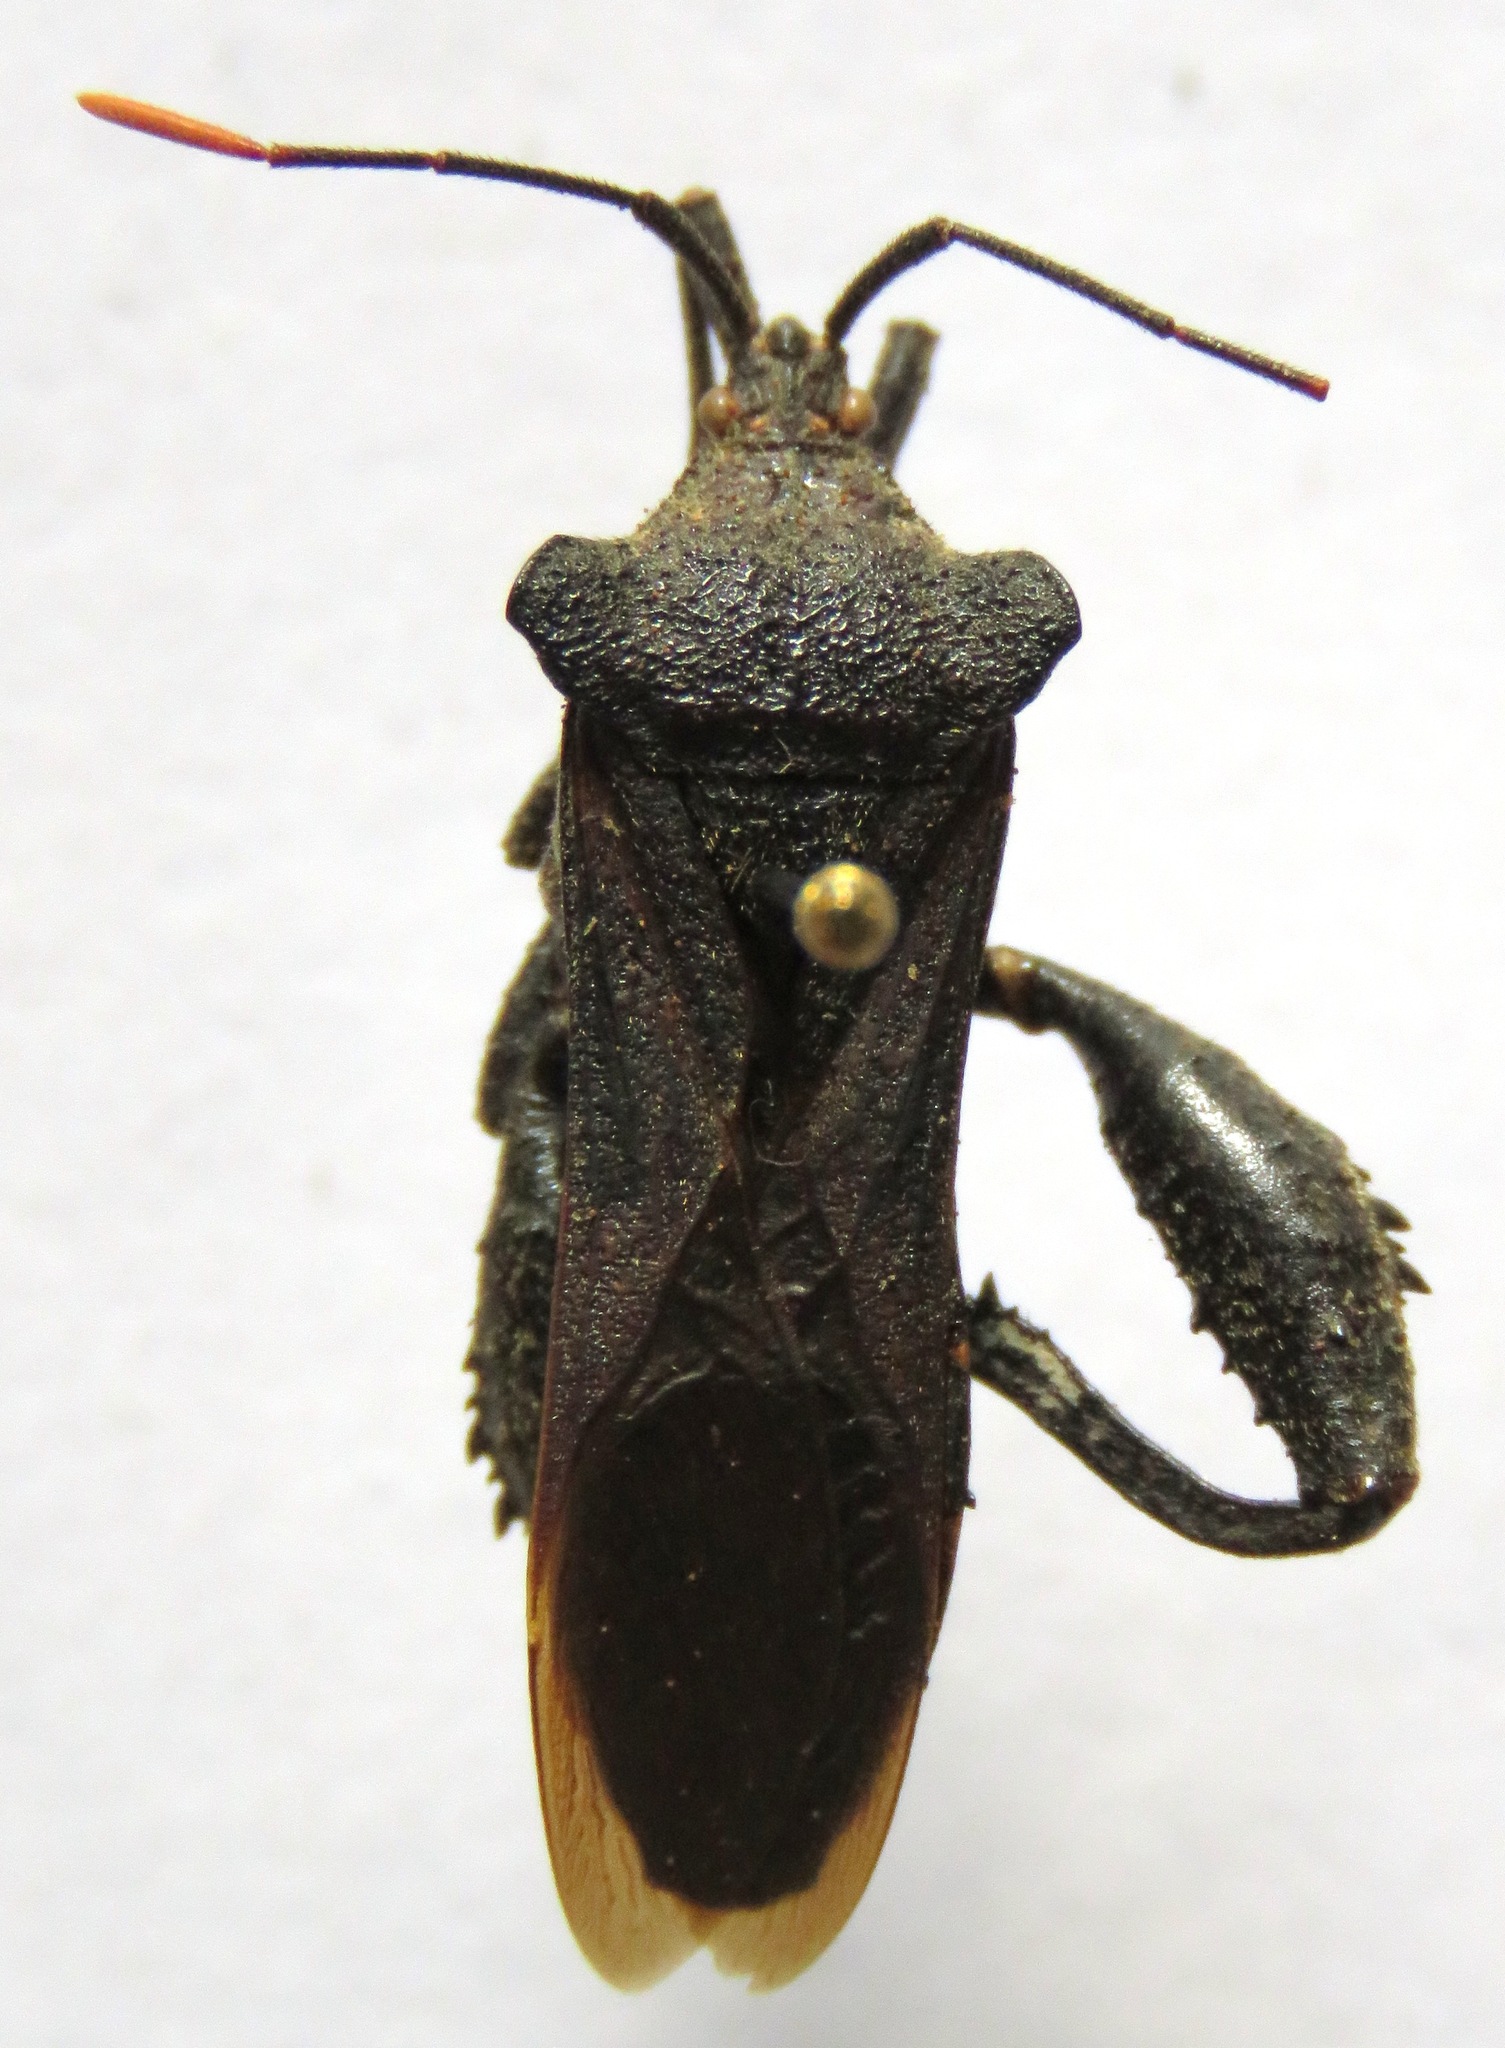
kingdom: Animalia
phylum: Arthropoda
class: Insecta
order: Hemiptera
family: Coreidae
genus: Piezogaster
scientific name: Piezogaster chiriquinus
